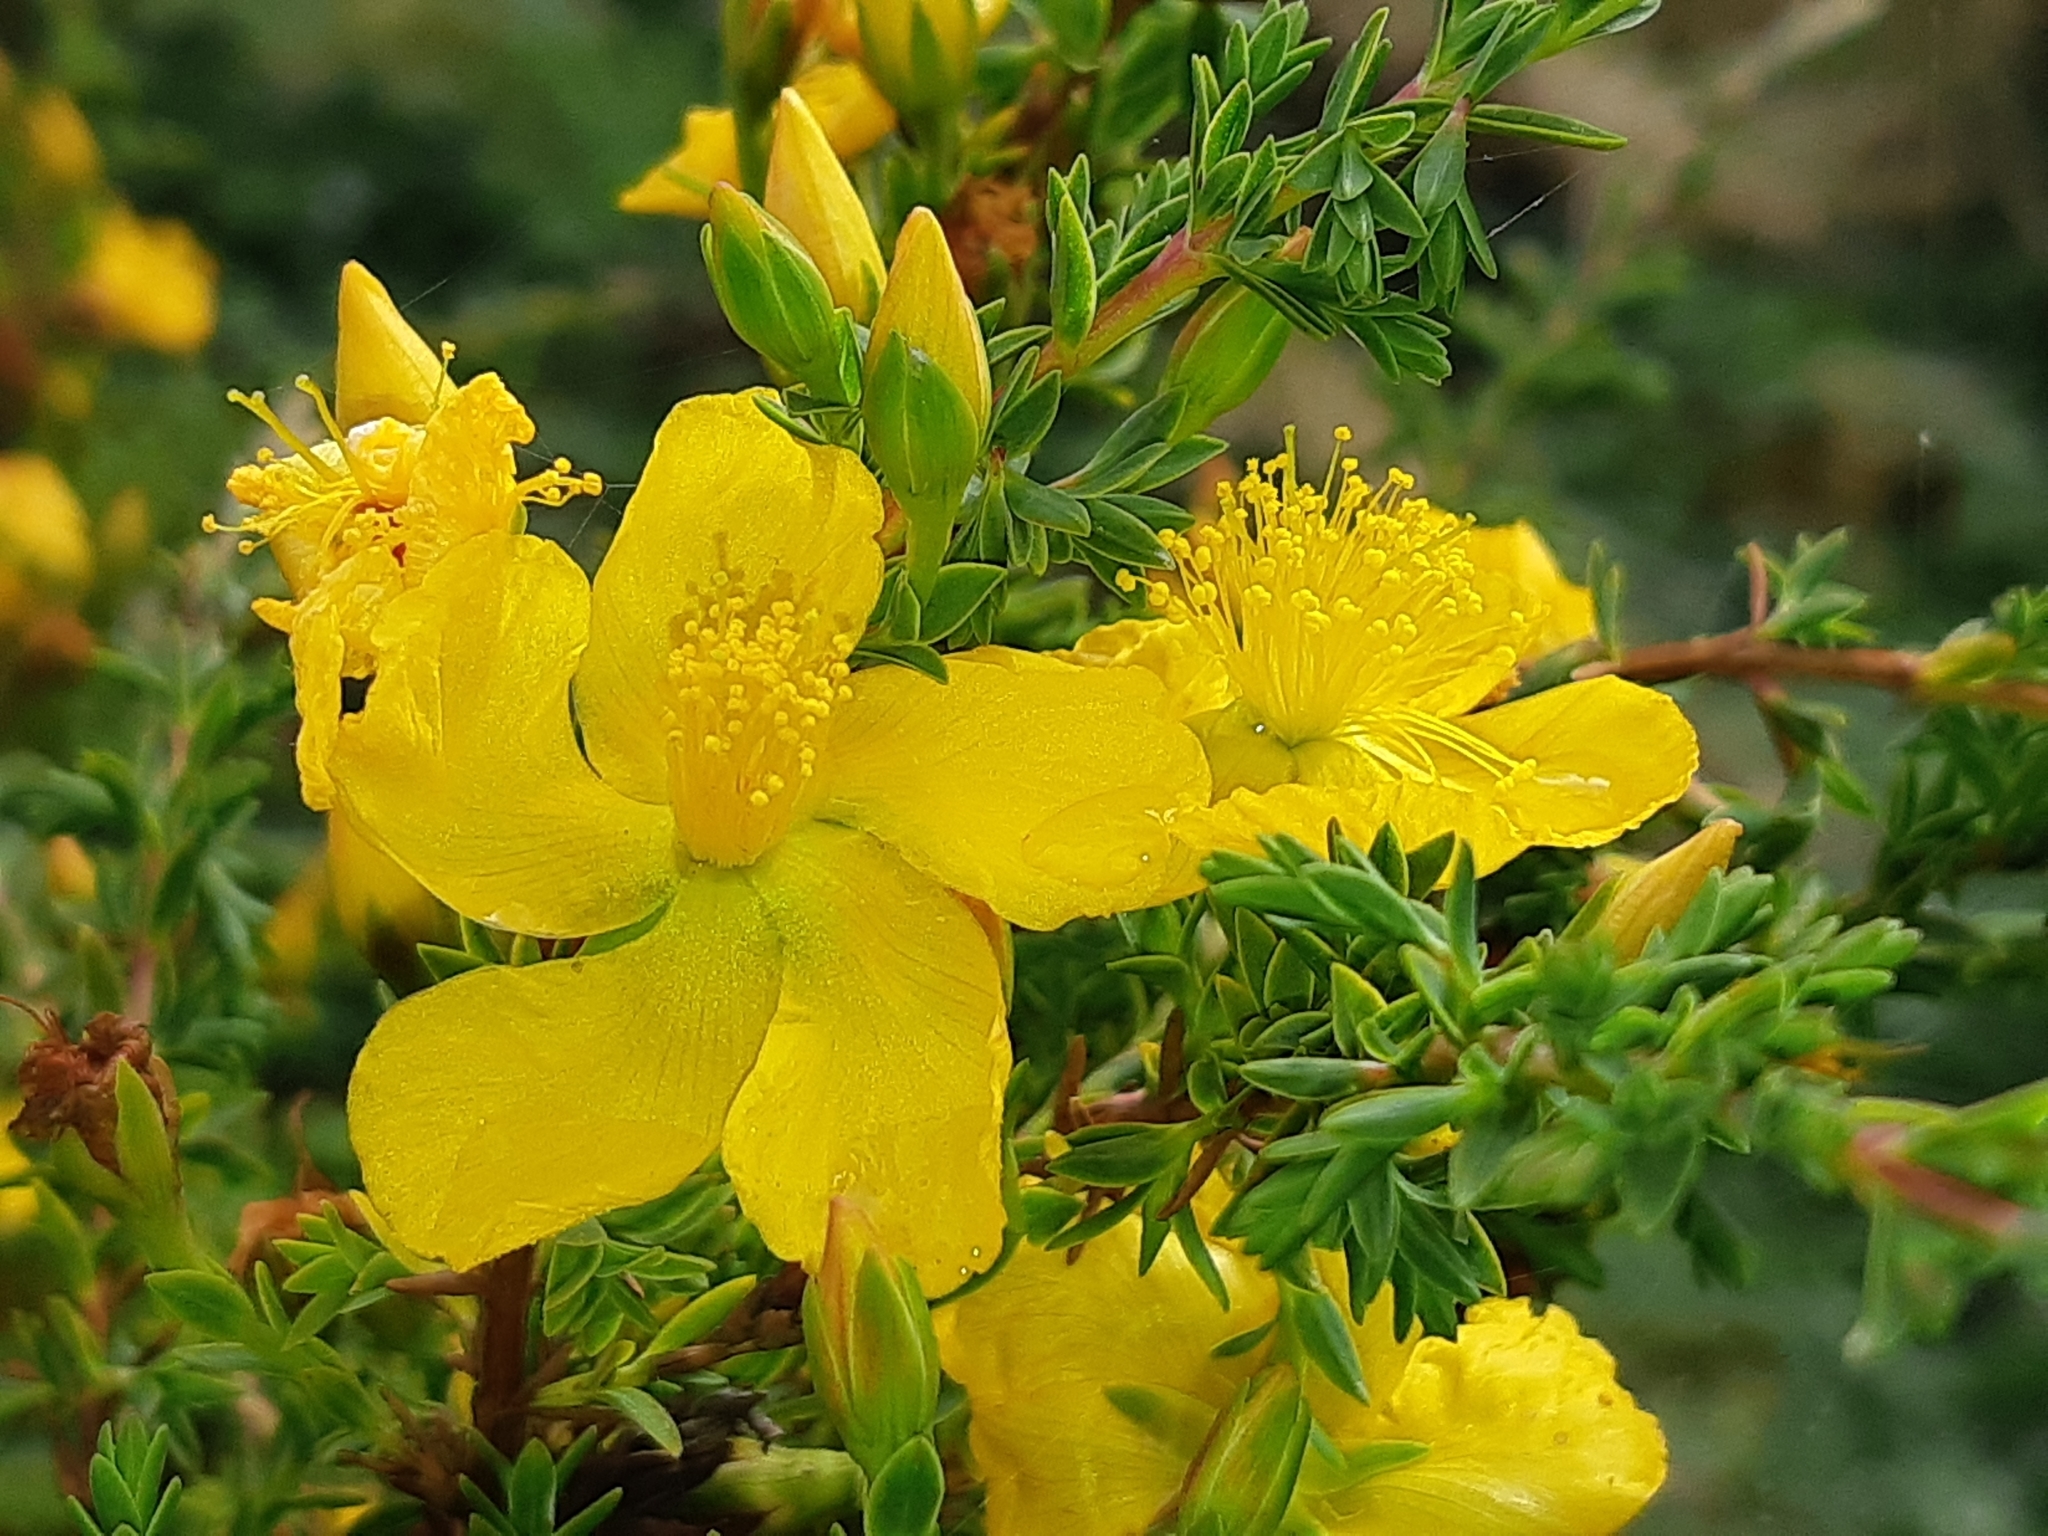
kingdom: Plantae
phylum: Tracheophyta
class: Magnoliopsida
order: Malpighiales
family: Hypericaceae
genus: Hypericum
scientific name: Hypericum laricifolium
